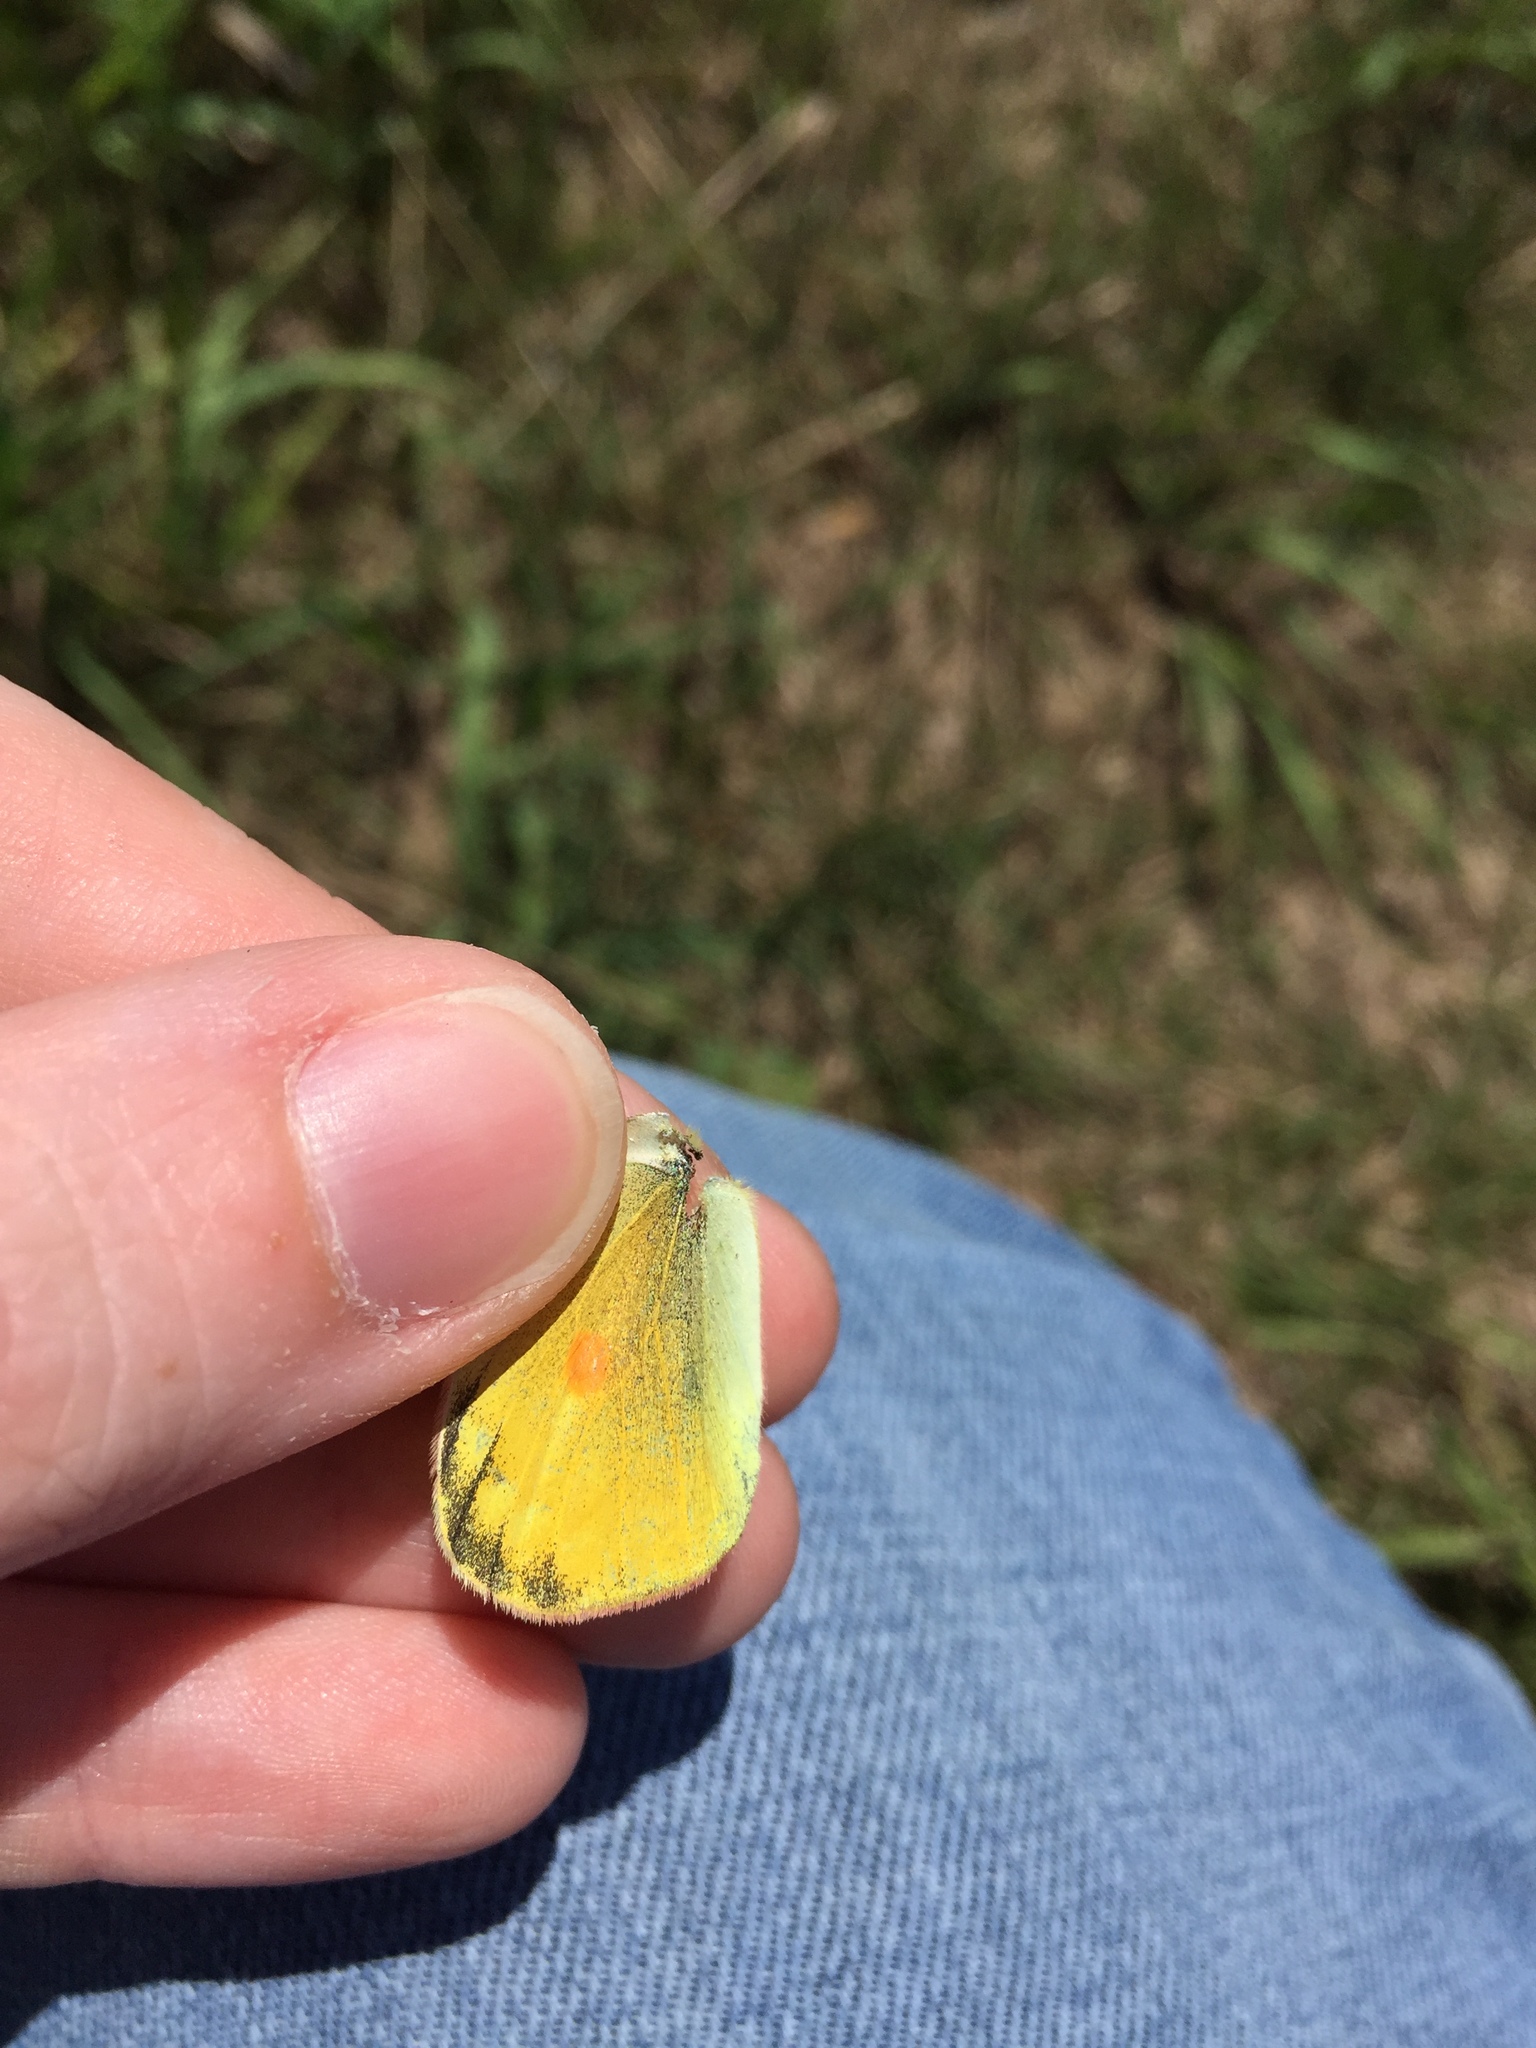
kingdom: Animalia
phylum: Arthropoda
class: Insecta
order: Lepidoptera
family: Pieridae
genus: Colias
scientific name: Colias eurytheme
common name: Alfalfa butterfly
